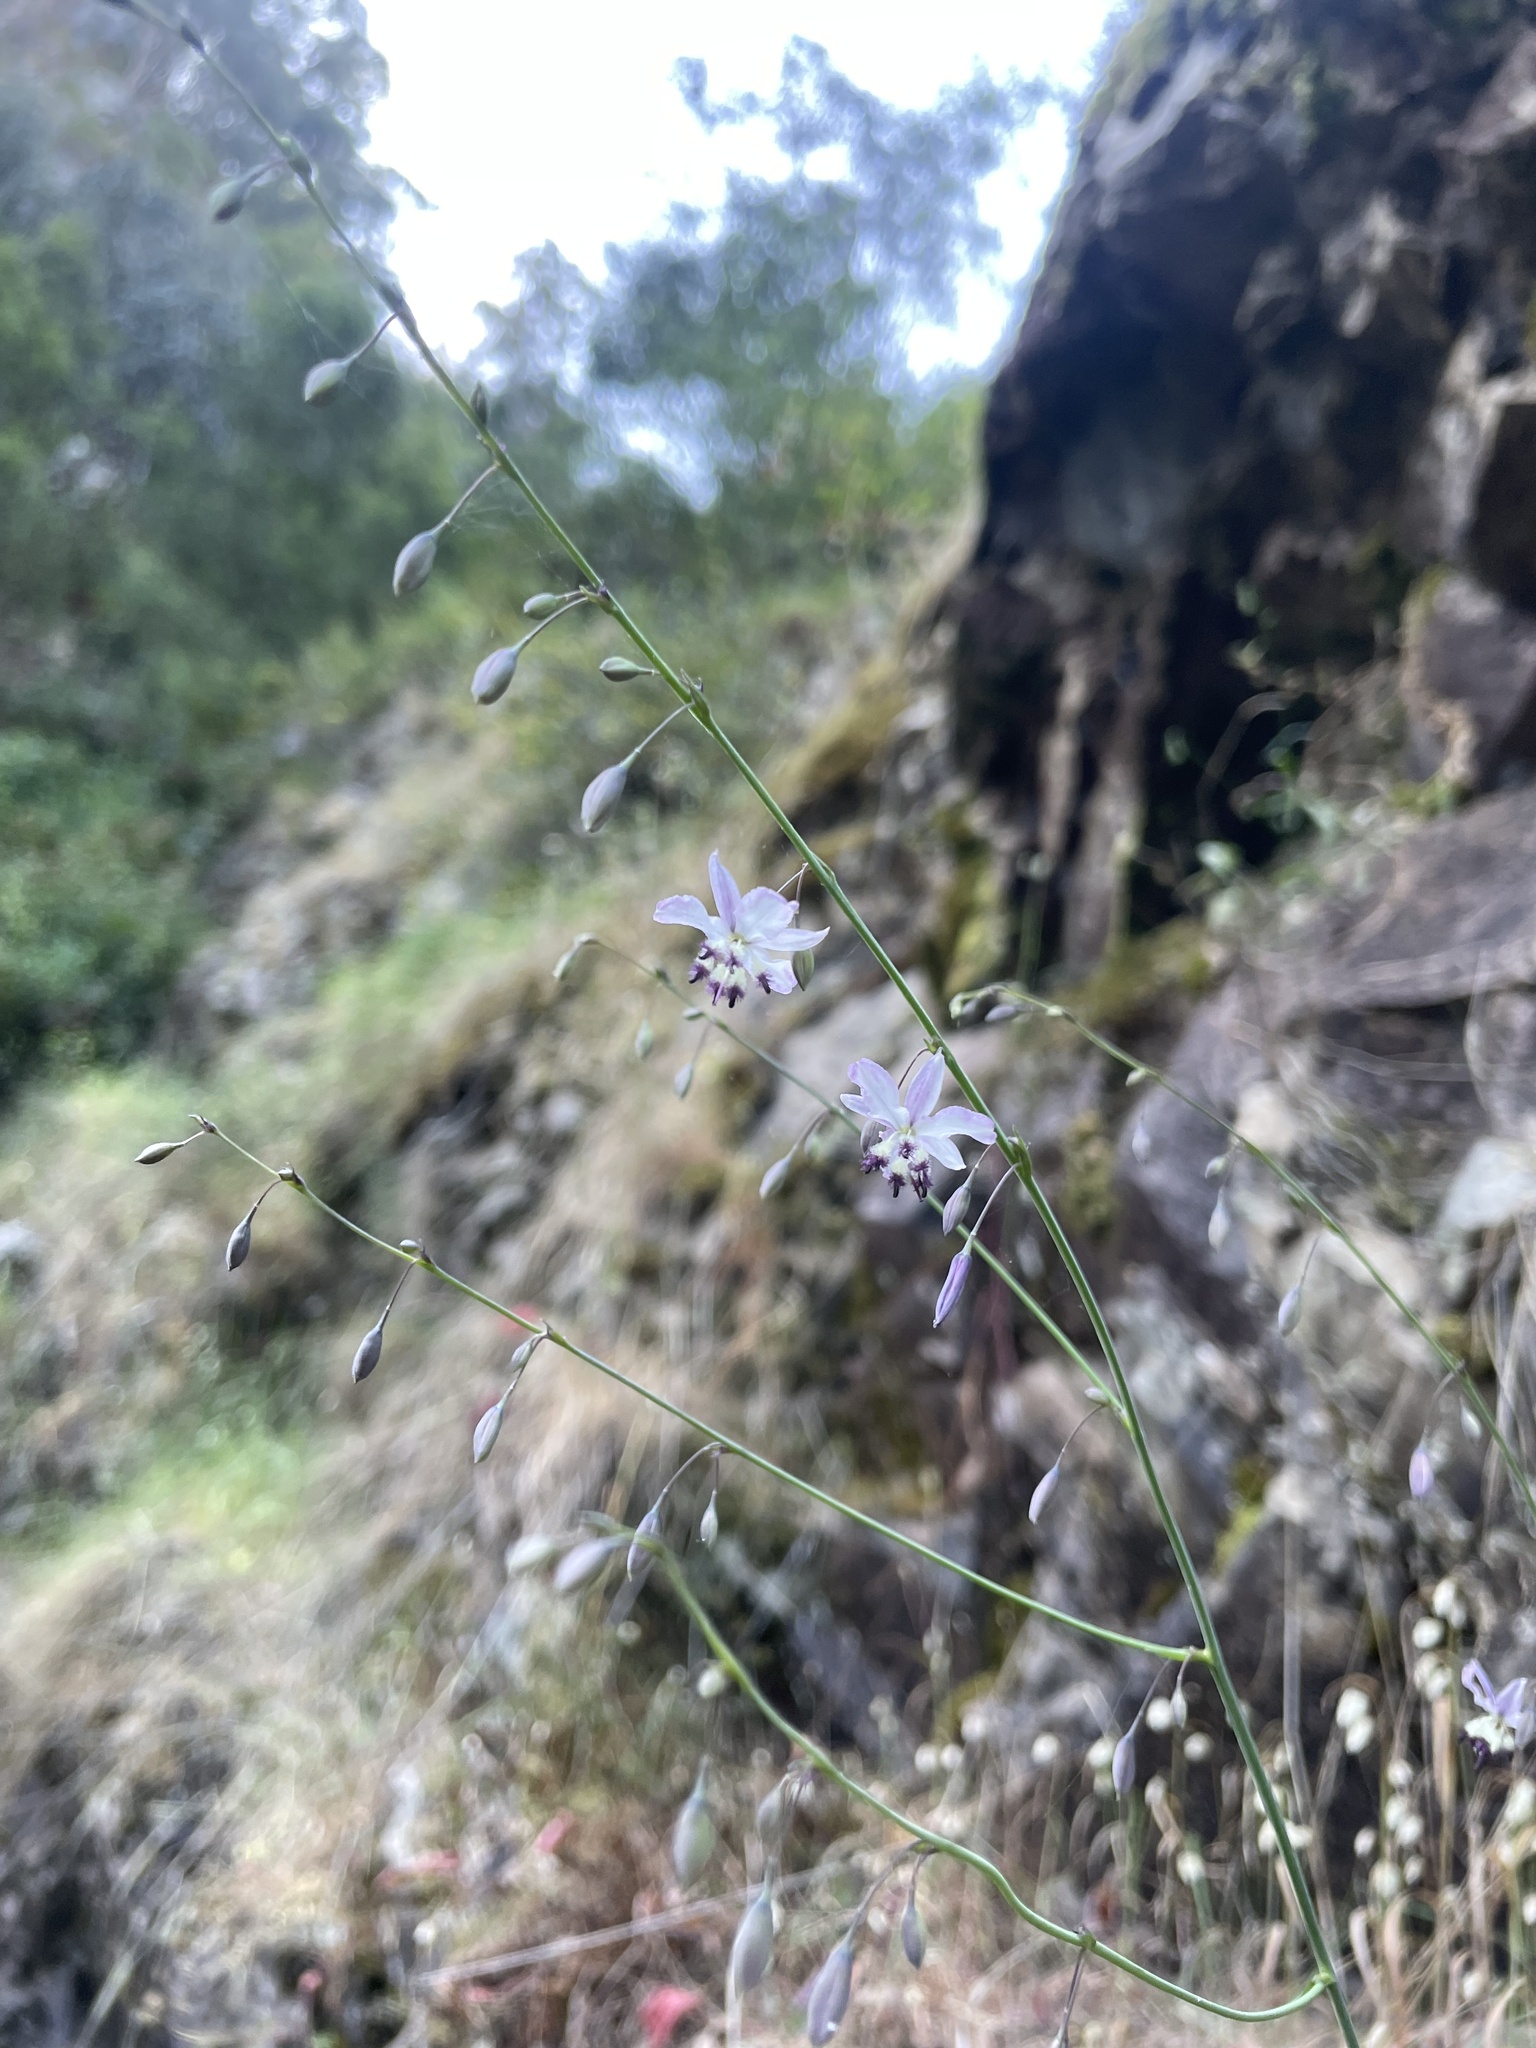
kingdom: Plantae
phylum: Tracheophyta
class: Liliopsida
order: Asparagales
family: Asparagaceae
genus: Arthropodium
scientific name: Arthropodium milleflorum
